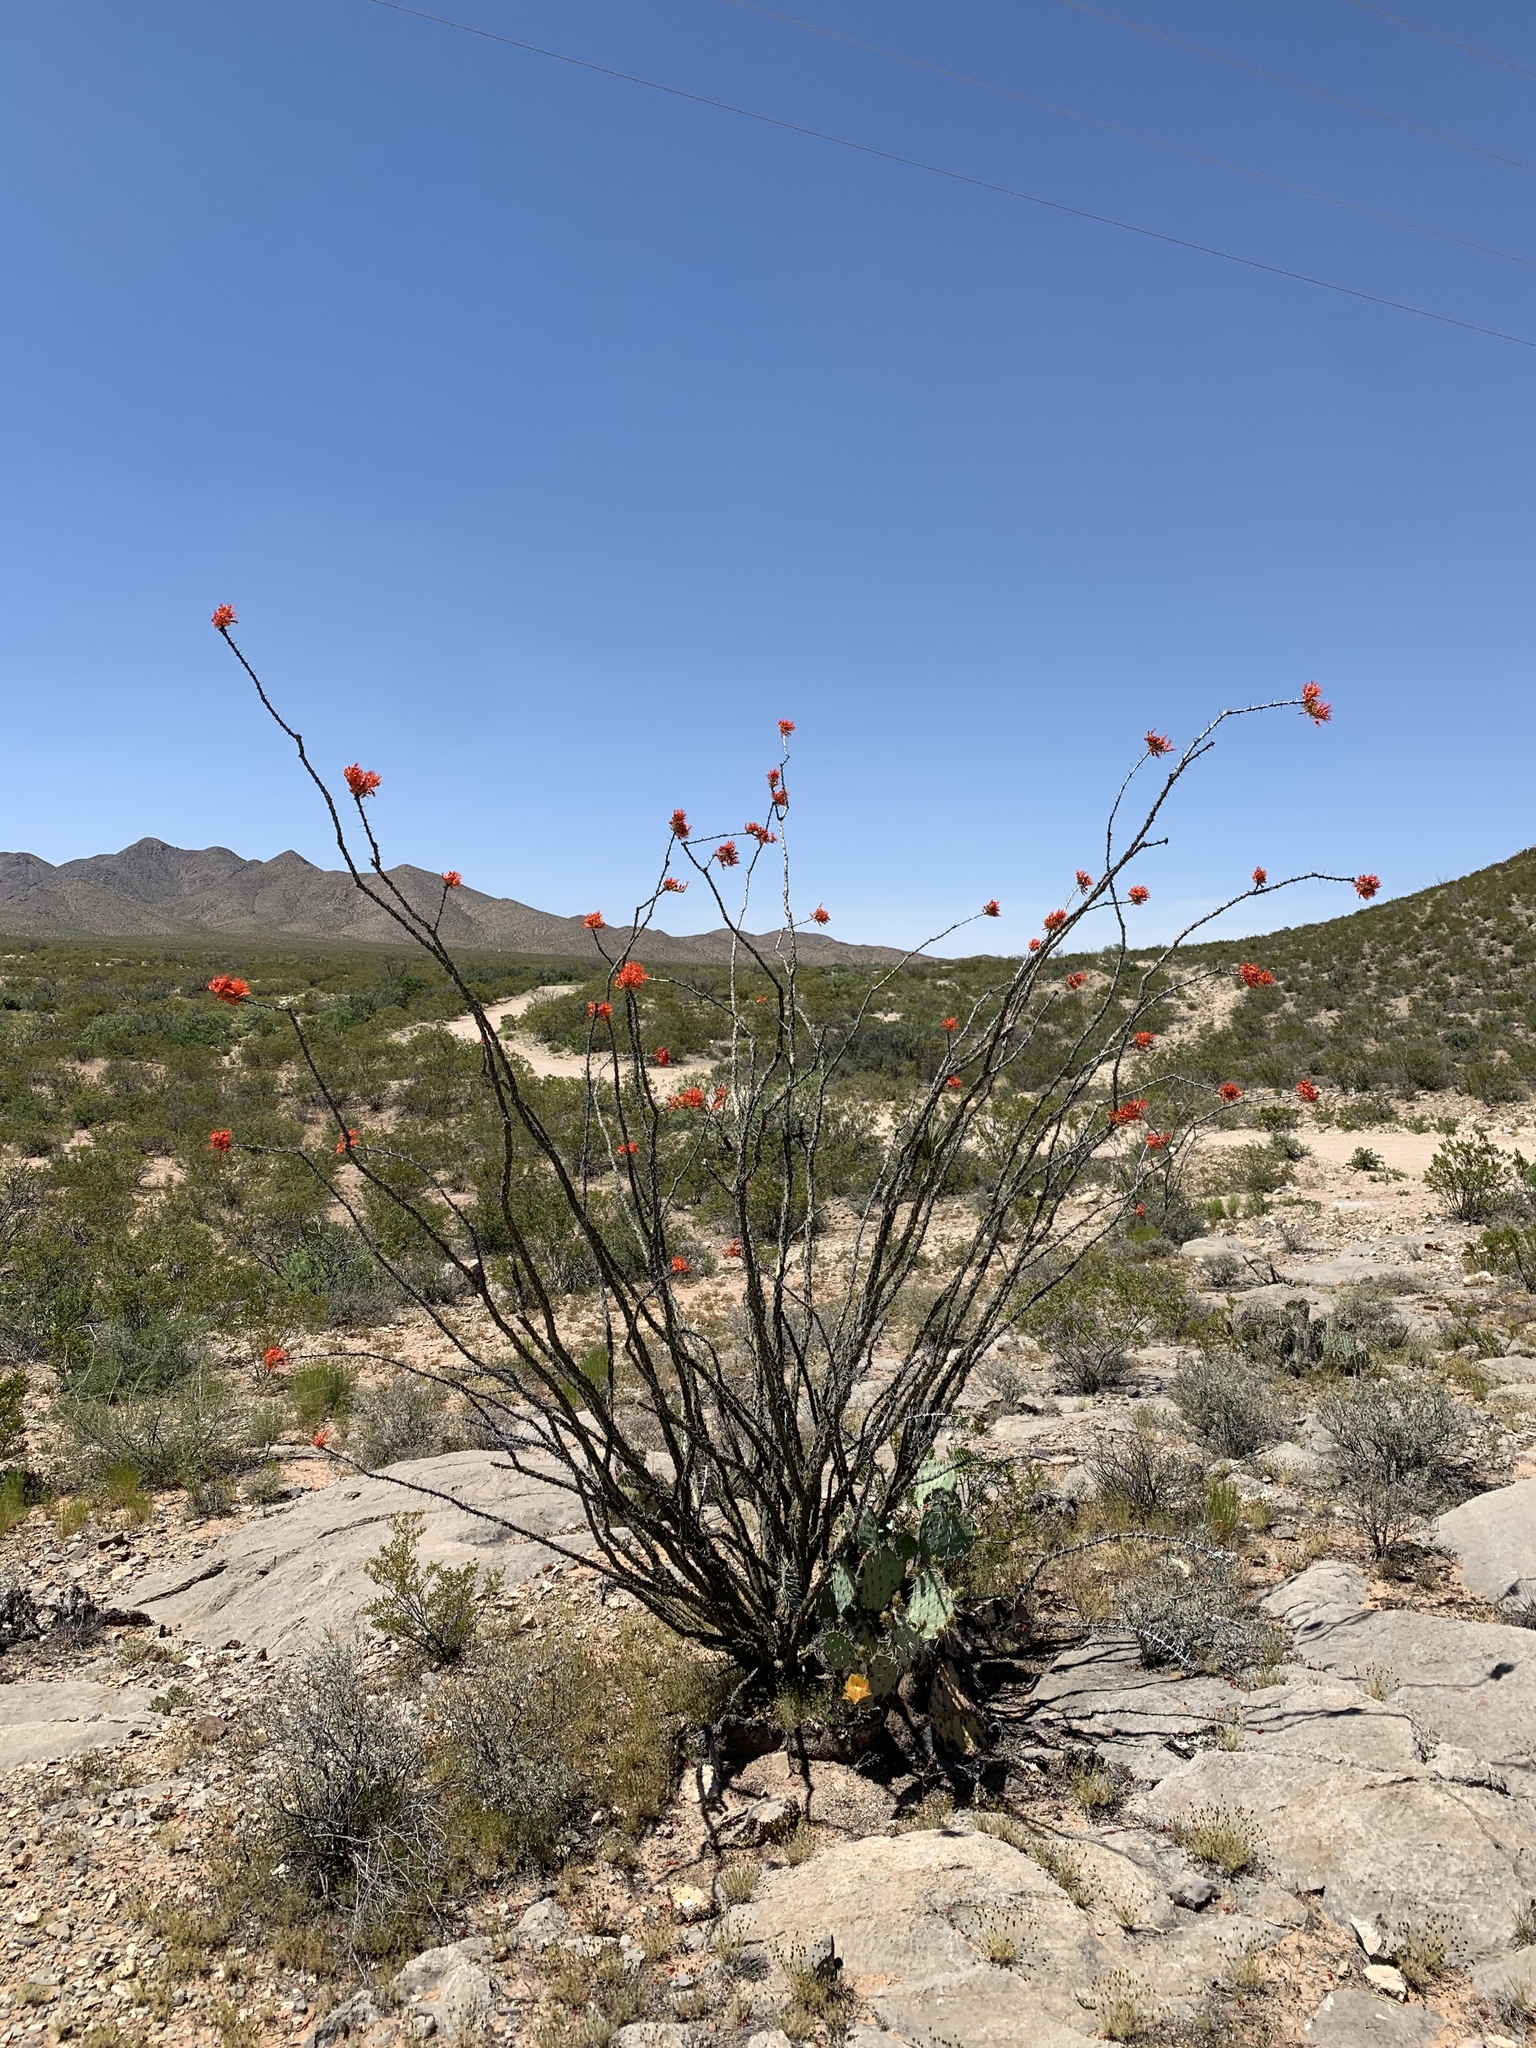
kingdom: Plantae
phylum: Tracheophyta
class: Magnoliopsida
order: Ericales
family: Fouquieriaceae
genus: Fouquieria
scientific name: Fouquieria splendens
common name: Vine-cactus
